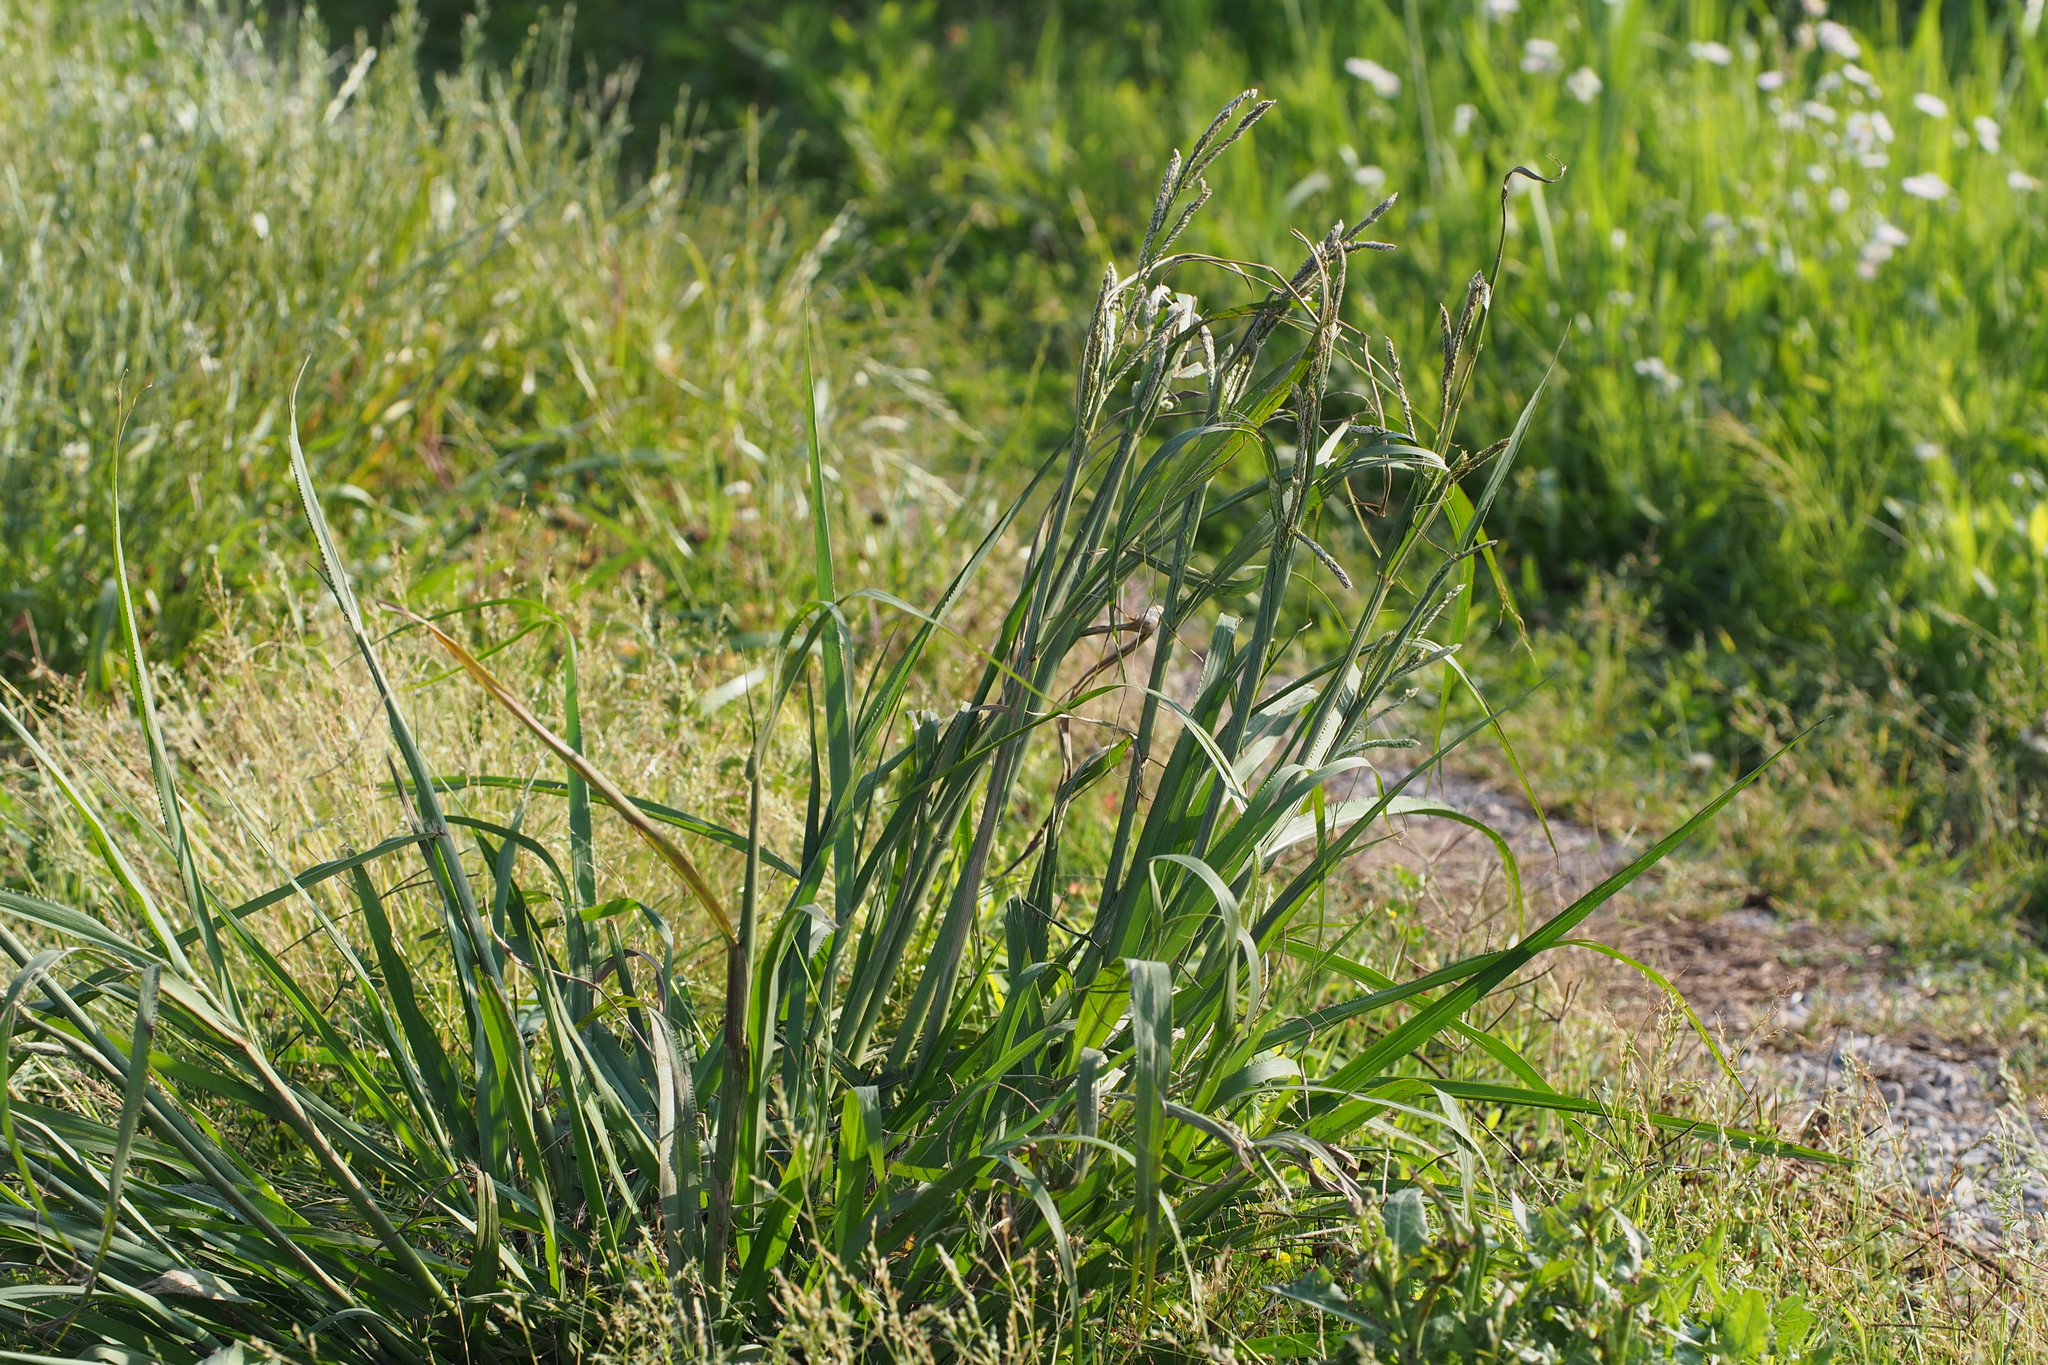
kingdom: Plantae
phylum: Tracheophyta
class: Liliopsida
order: Poales
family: Poaceae
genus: Paspalum
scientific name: Paspalum urvillei
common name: Vasey's grass
